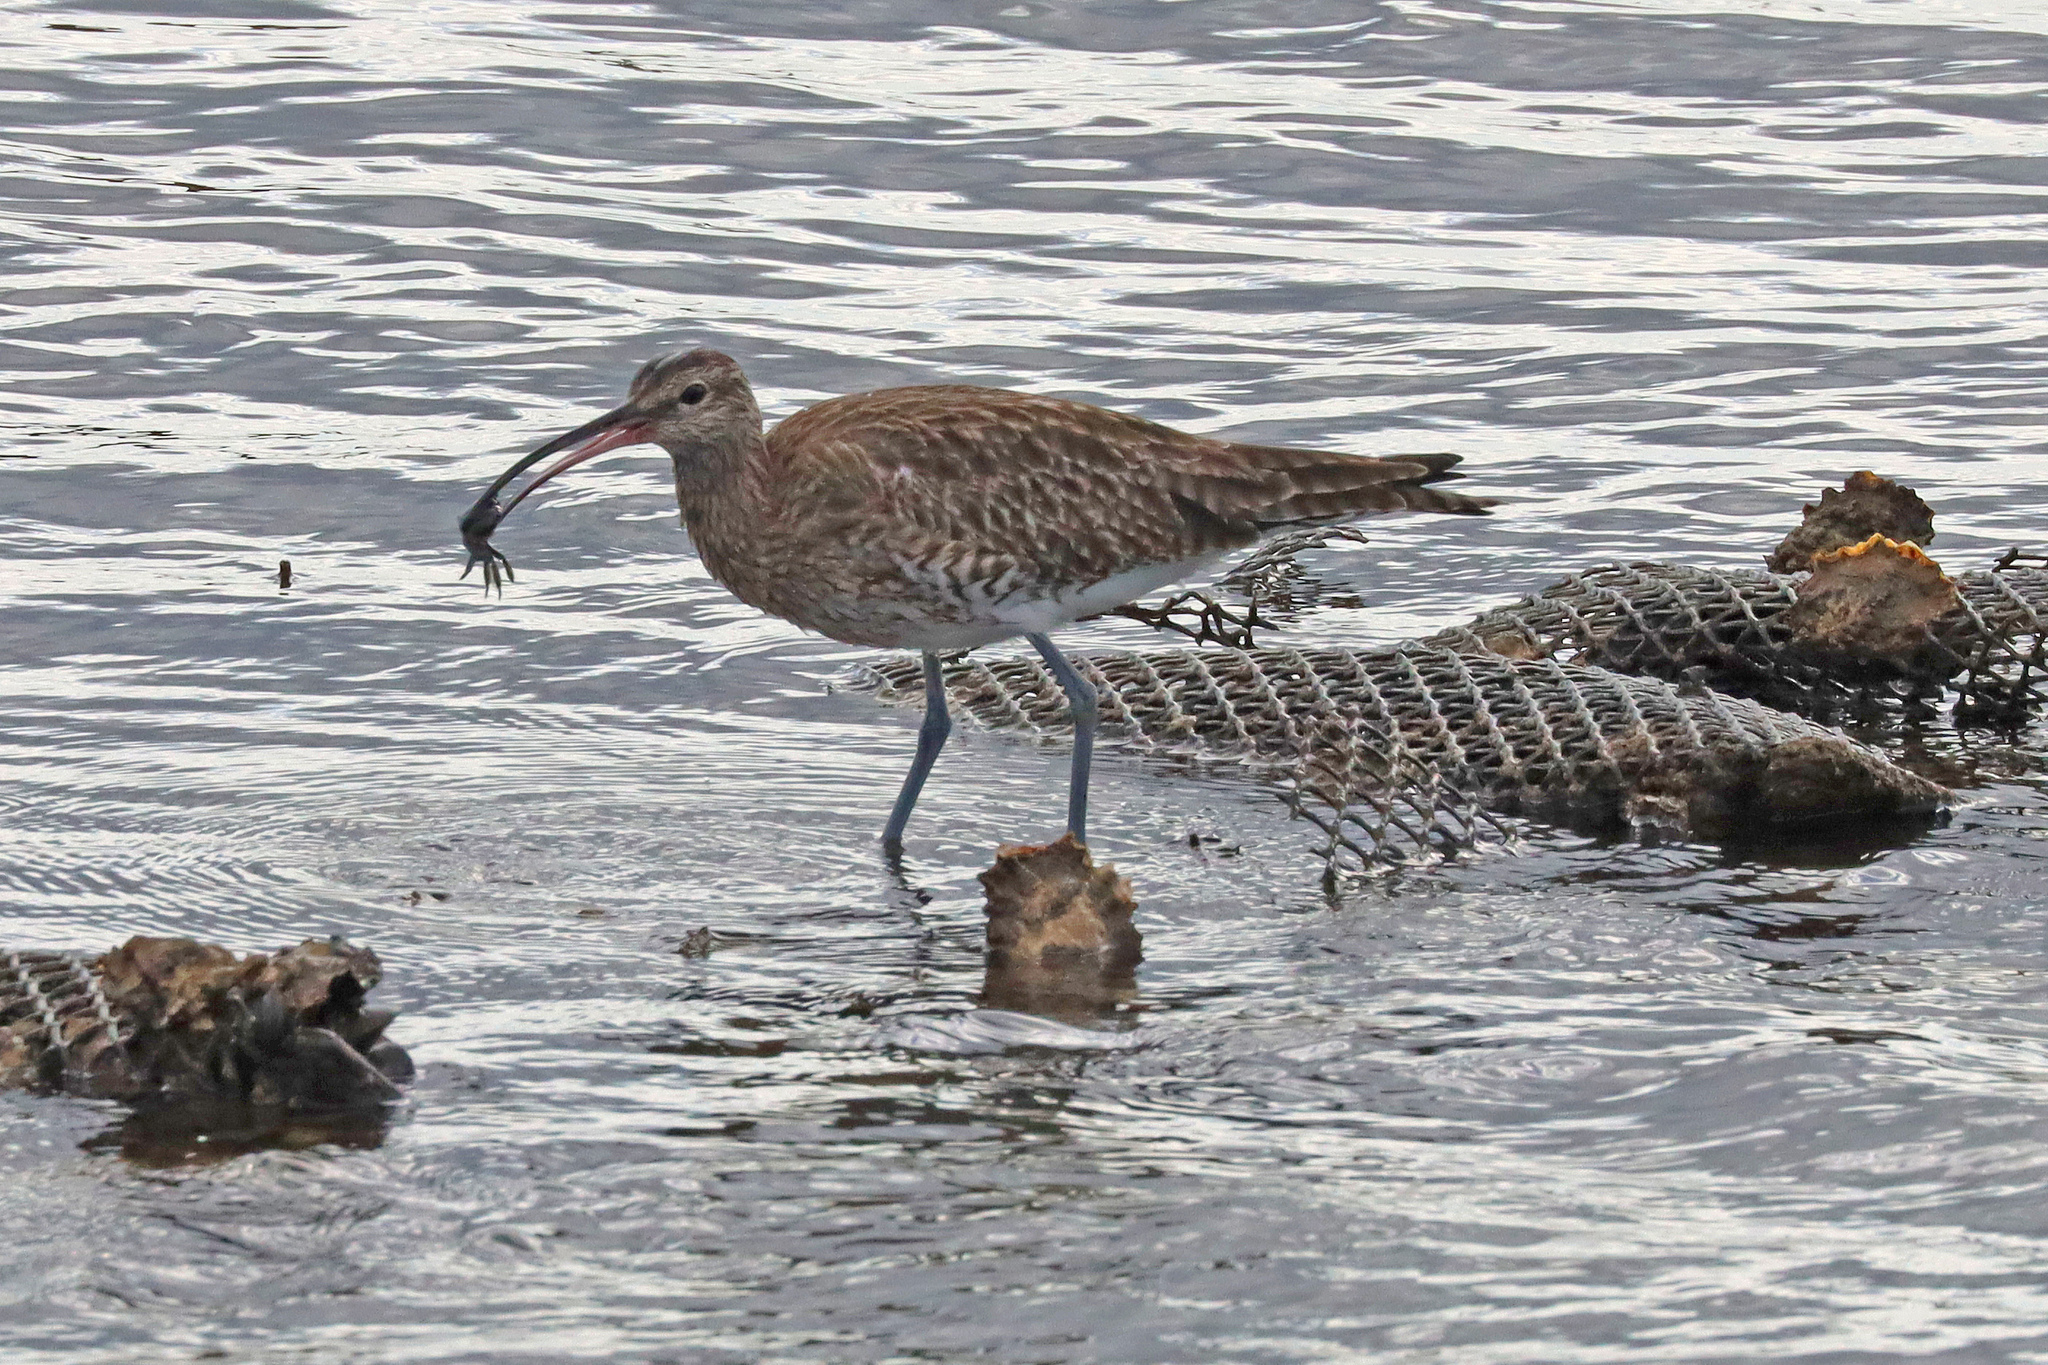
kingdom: Animalia
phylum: Chordata
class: Aves
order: Charadriiformes
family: Scolopacidae
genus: Numenius
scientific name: Numenius phaeopus
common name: Whimbrel
